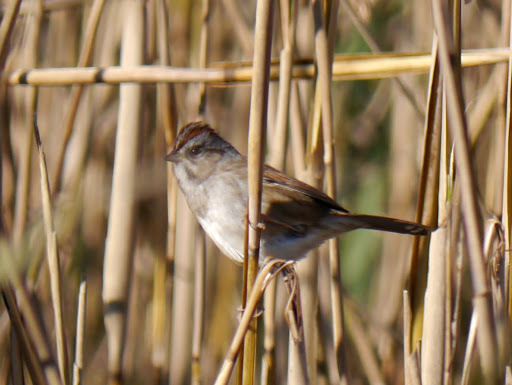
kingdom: Animalia
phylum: Chordata
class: Aves
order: Passeriformes
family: Passerellidae
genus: Melospiza
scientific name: Melospiza georgiana
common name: Swamp sparrow
